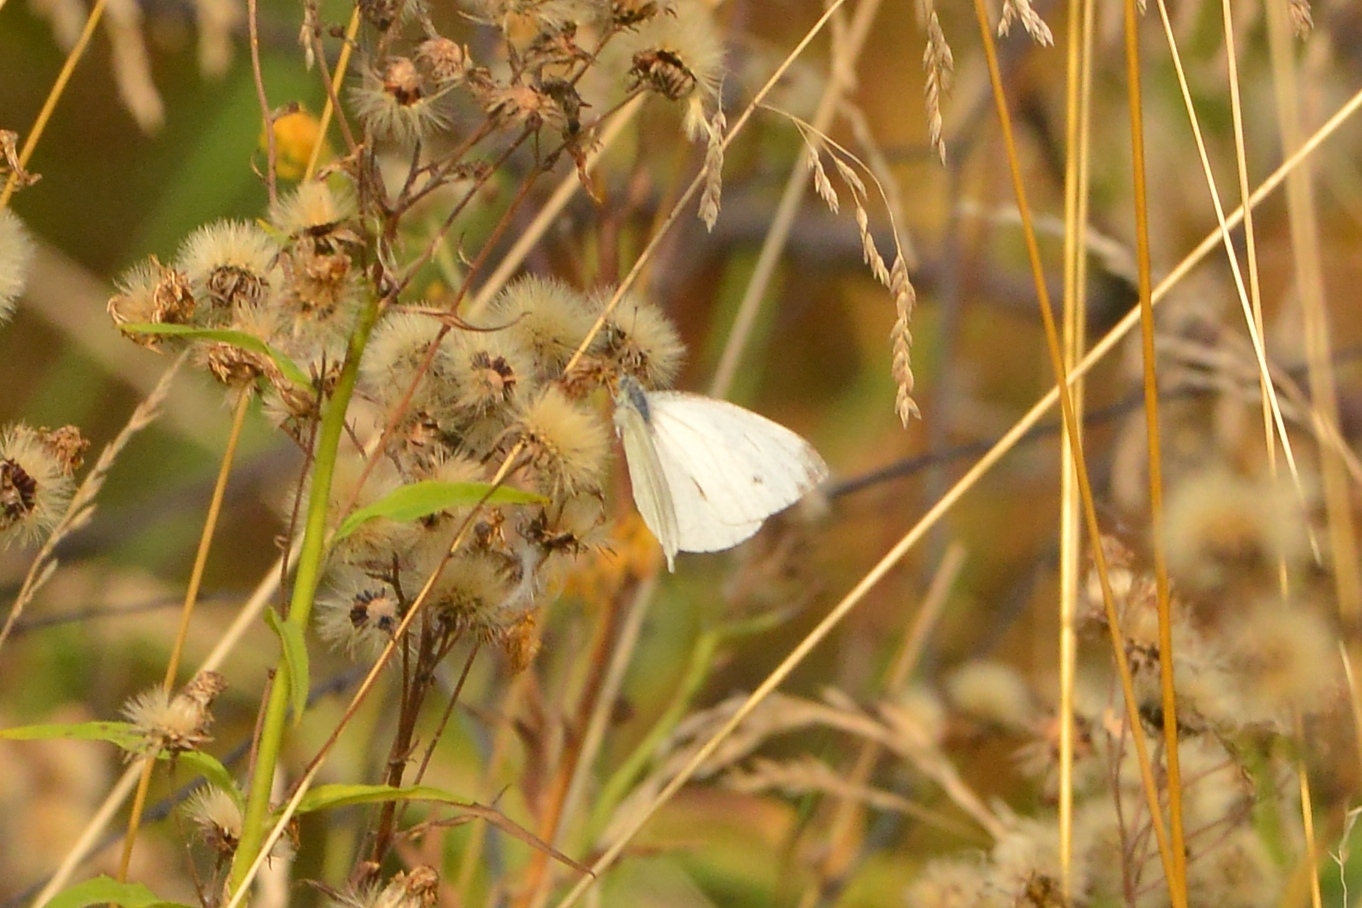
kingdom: Animalia
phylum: Arthropoda
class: Insecta
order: Lepidoptera
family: Pieridae
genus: Pieris
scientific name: Pieris napi
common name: Green-veined white
